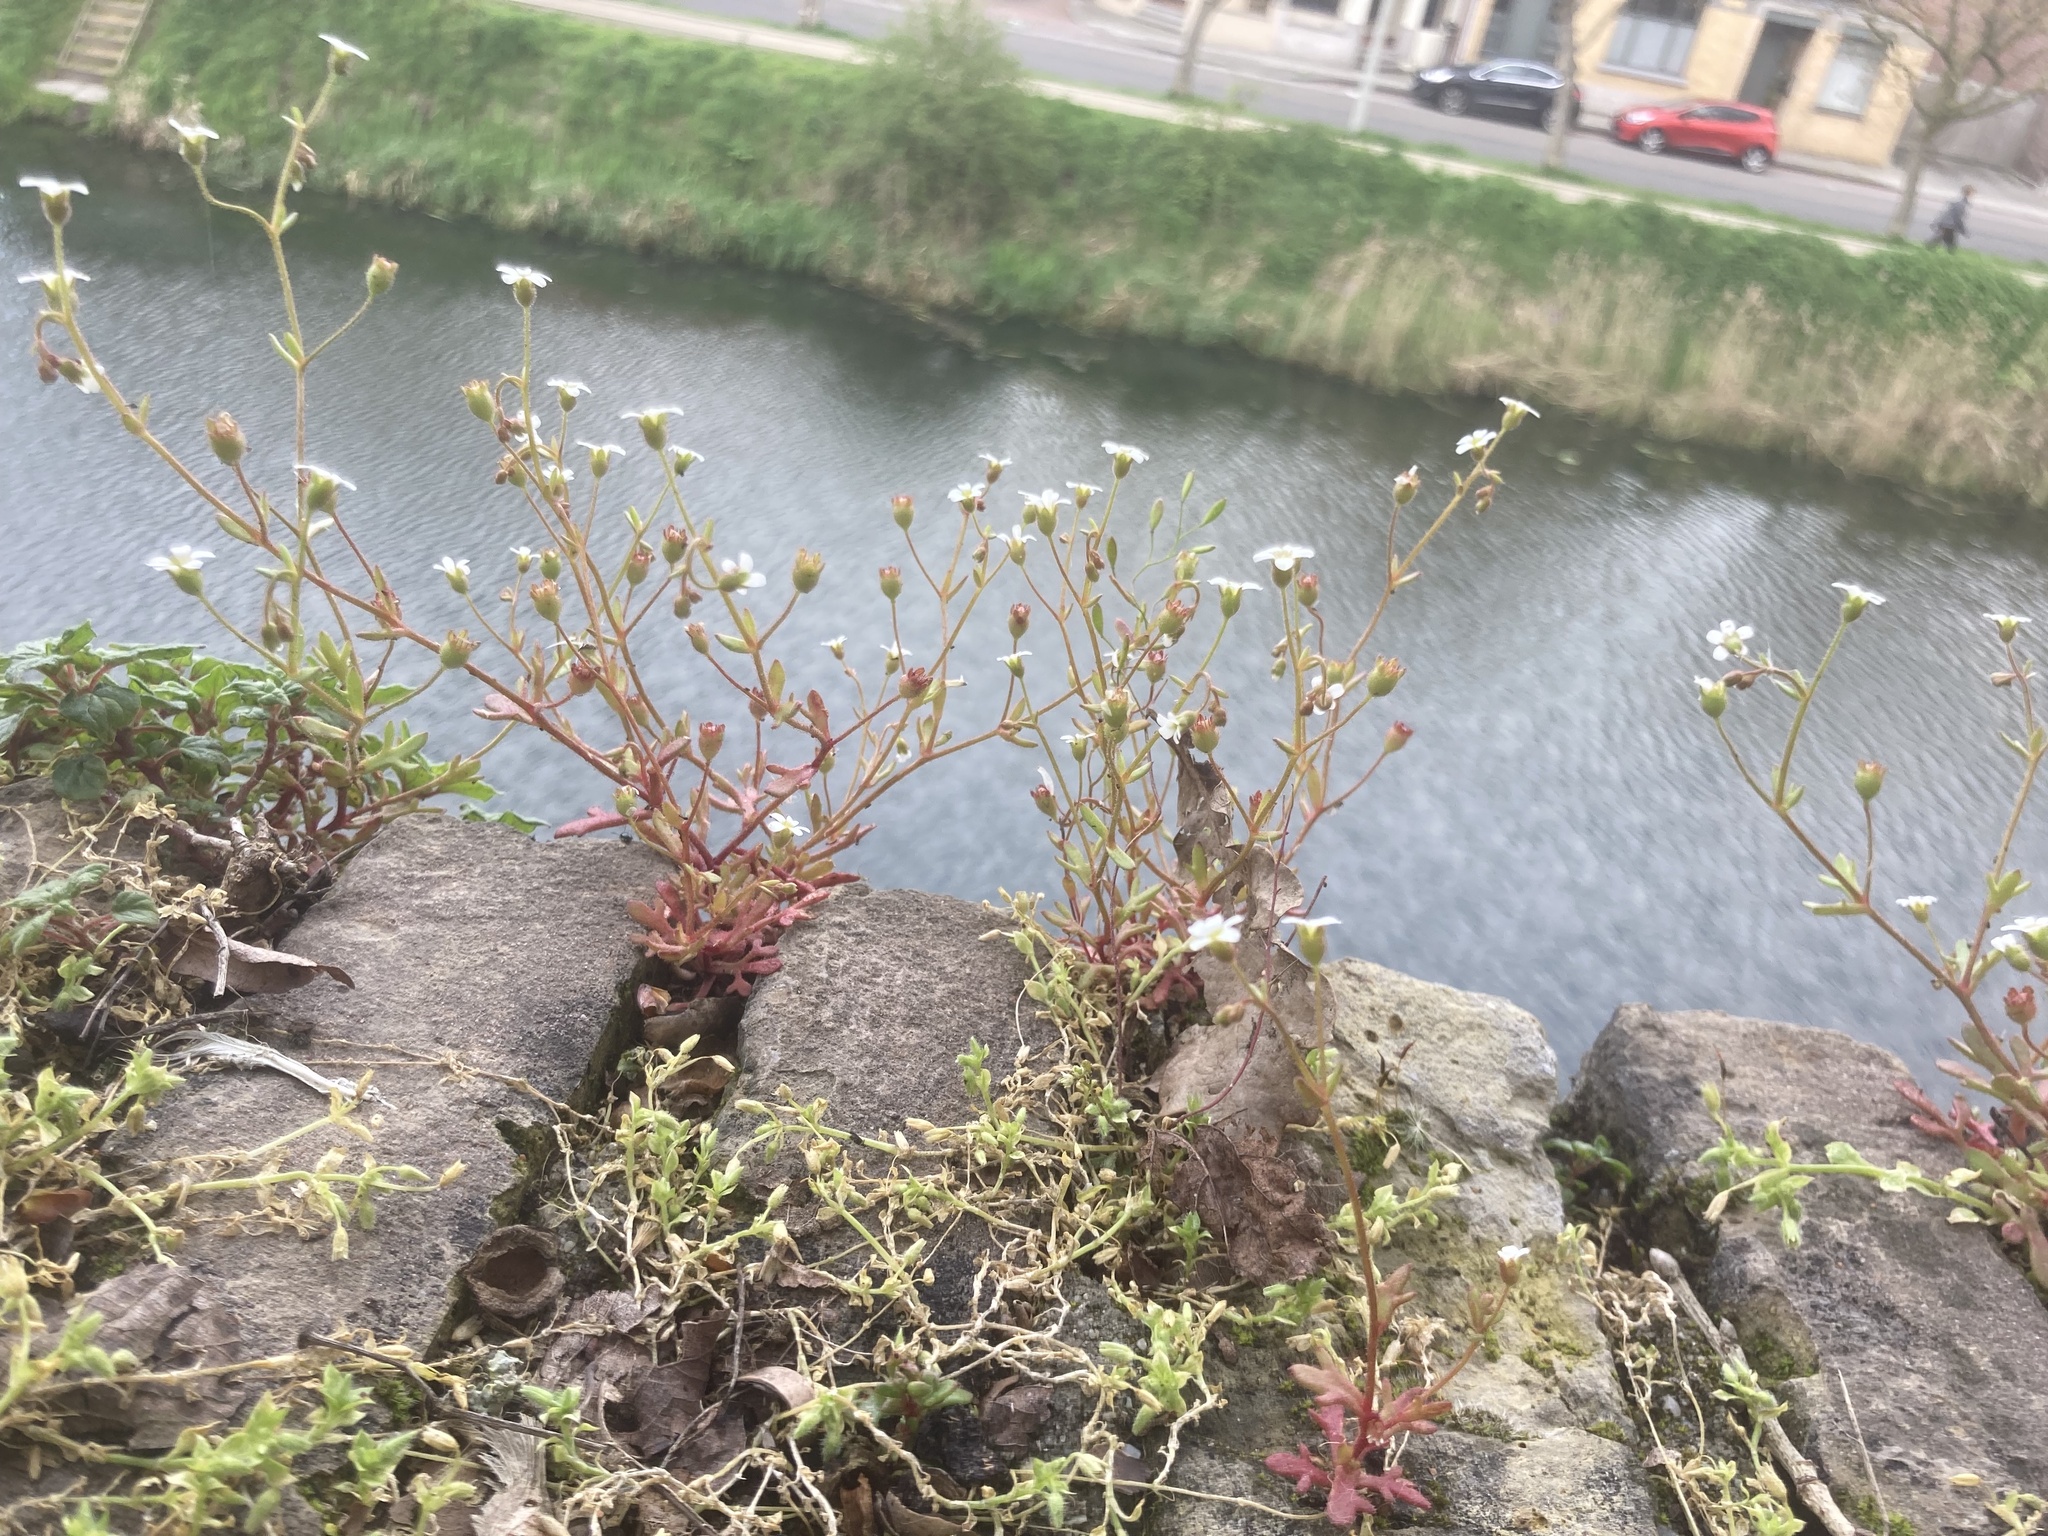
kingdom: Plantae
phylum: Tracheophyta
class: Magnoliopsida
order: Saxifragales
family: Saxifragaceae
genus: Saxifraga
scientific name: Saxifraga tridactylites
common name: Rue-leaved saxifrage
